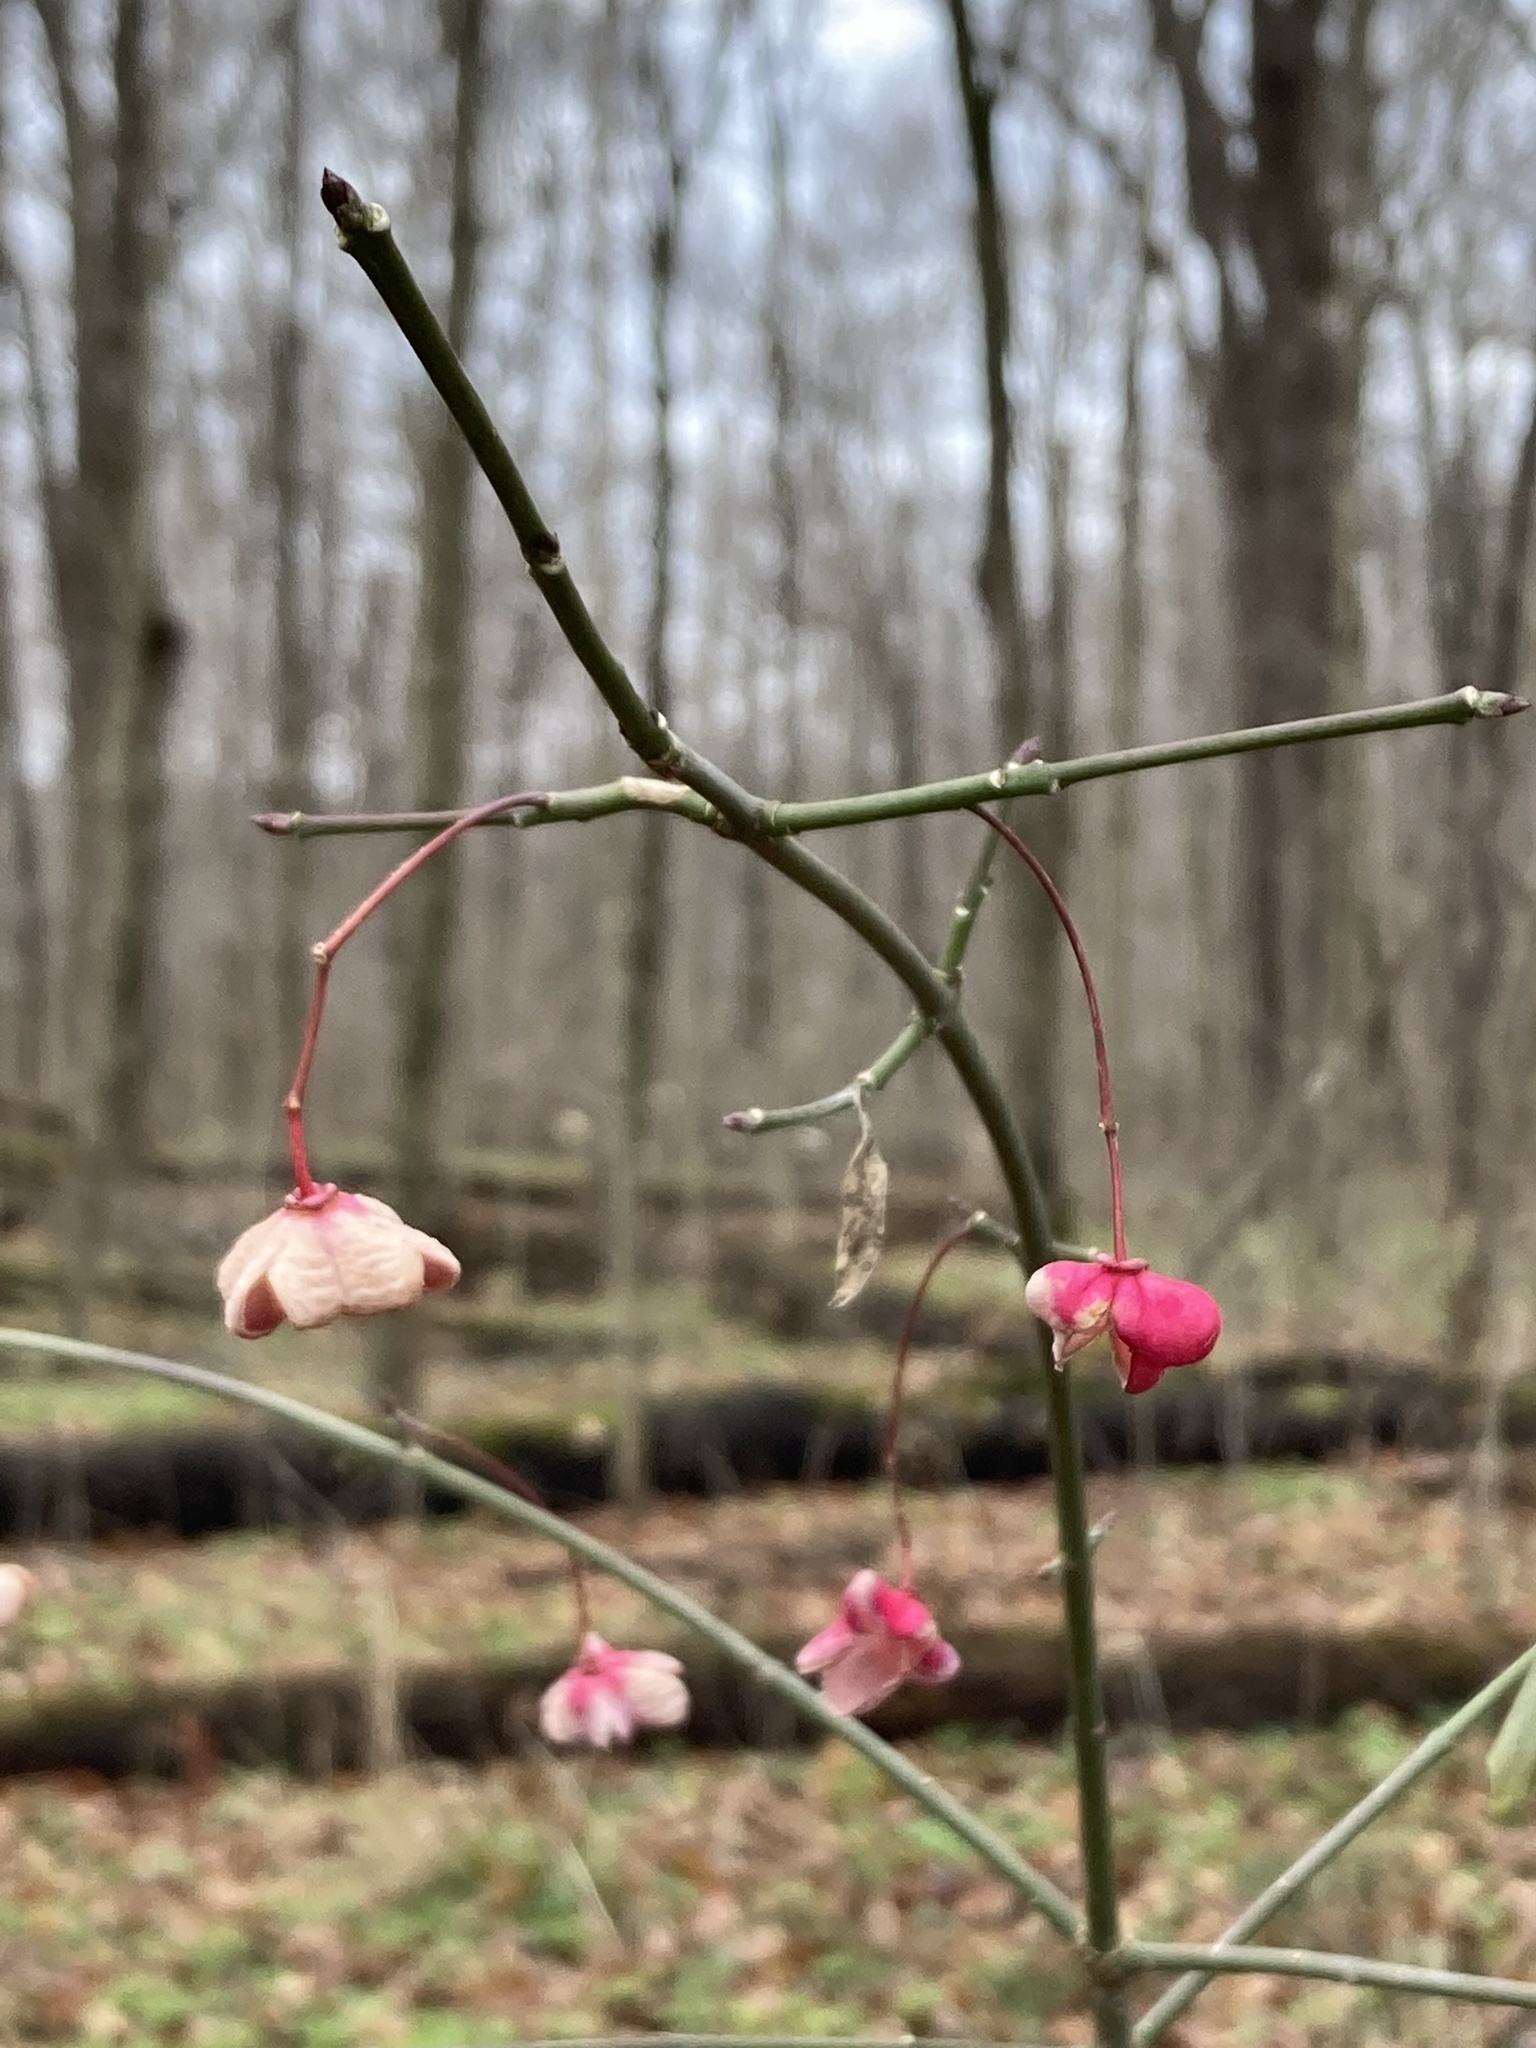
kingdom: Plantae
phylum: Tracheophyta
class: Magnoliopsida
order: Celastrales
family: Celastraceae
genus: Euonymus
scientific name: Euonymus atropurpureus
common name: Eastern wahoo
